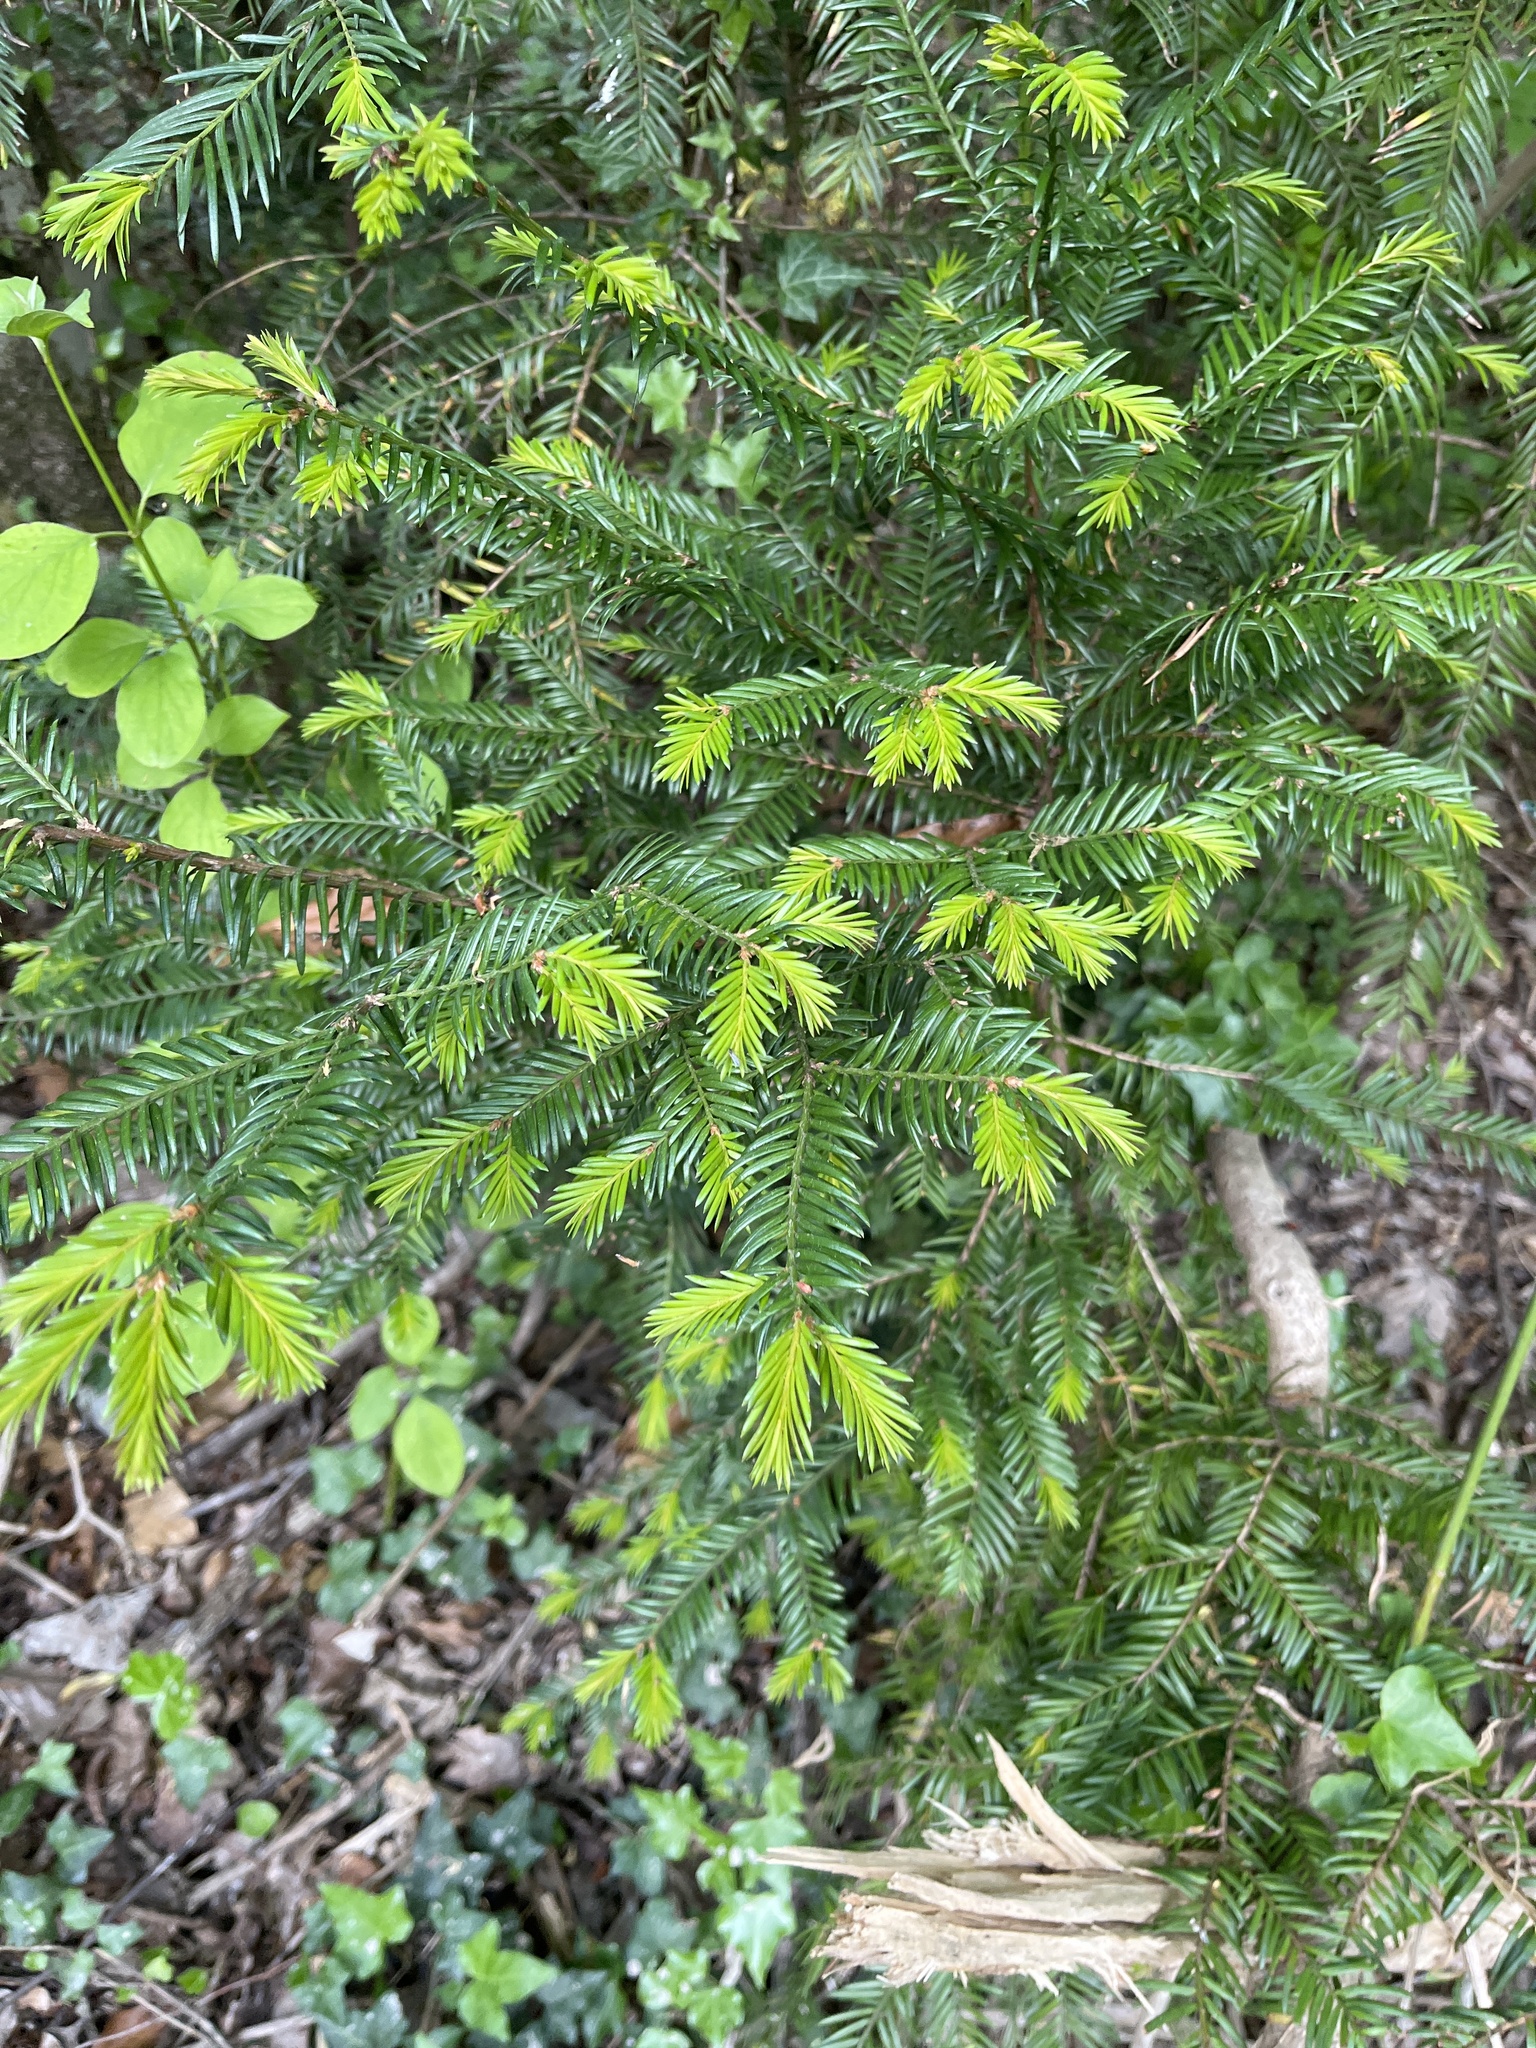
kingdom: Plantae
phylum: Tracheophyta
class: Pinopsida
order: Pinales
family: Pinaceae
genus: Abies
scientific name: Abies alba
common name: Silver fir
